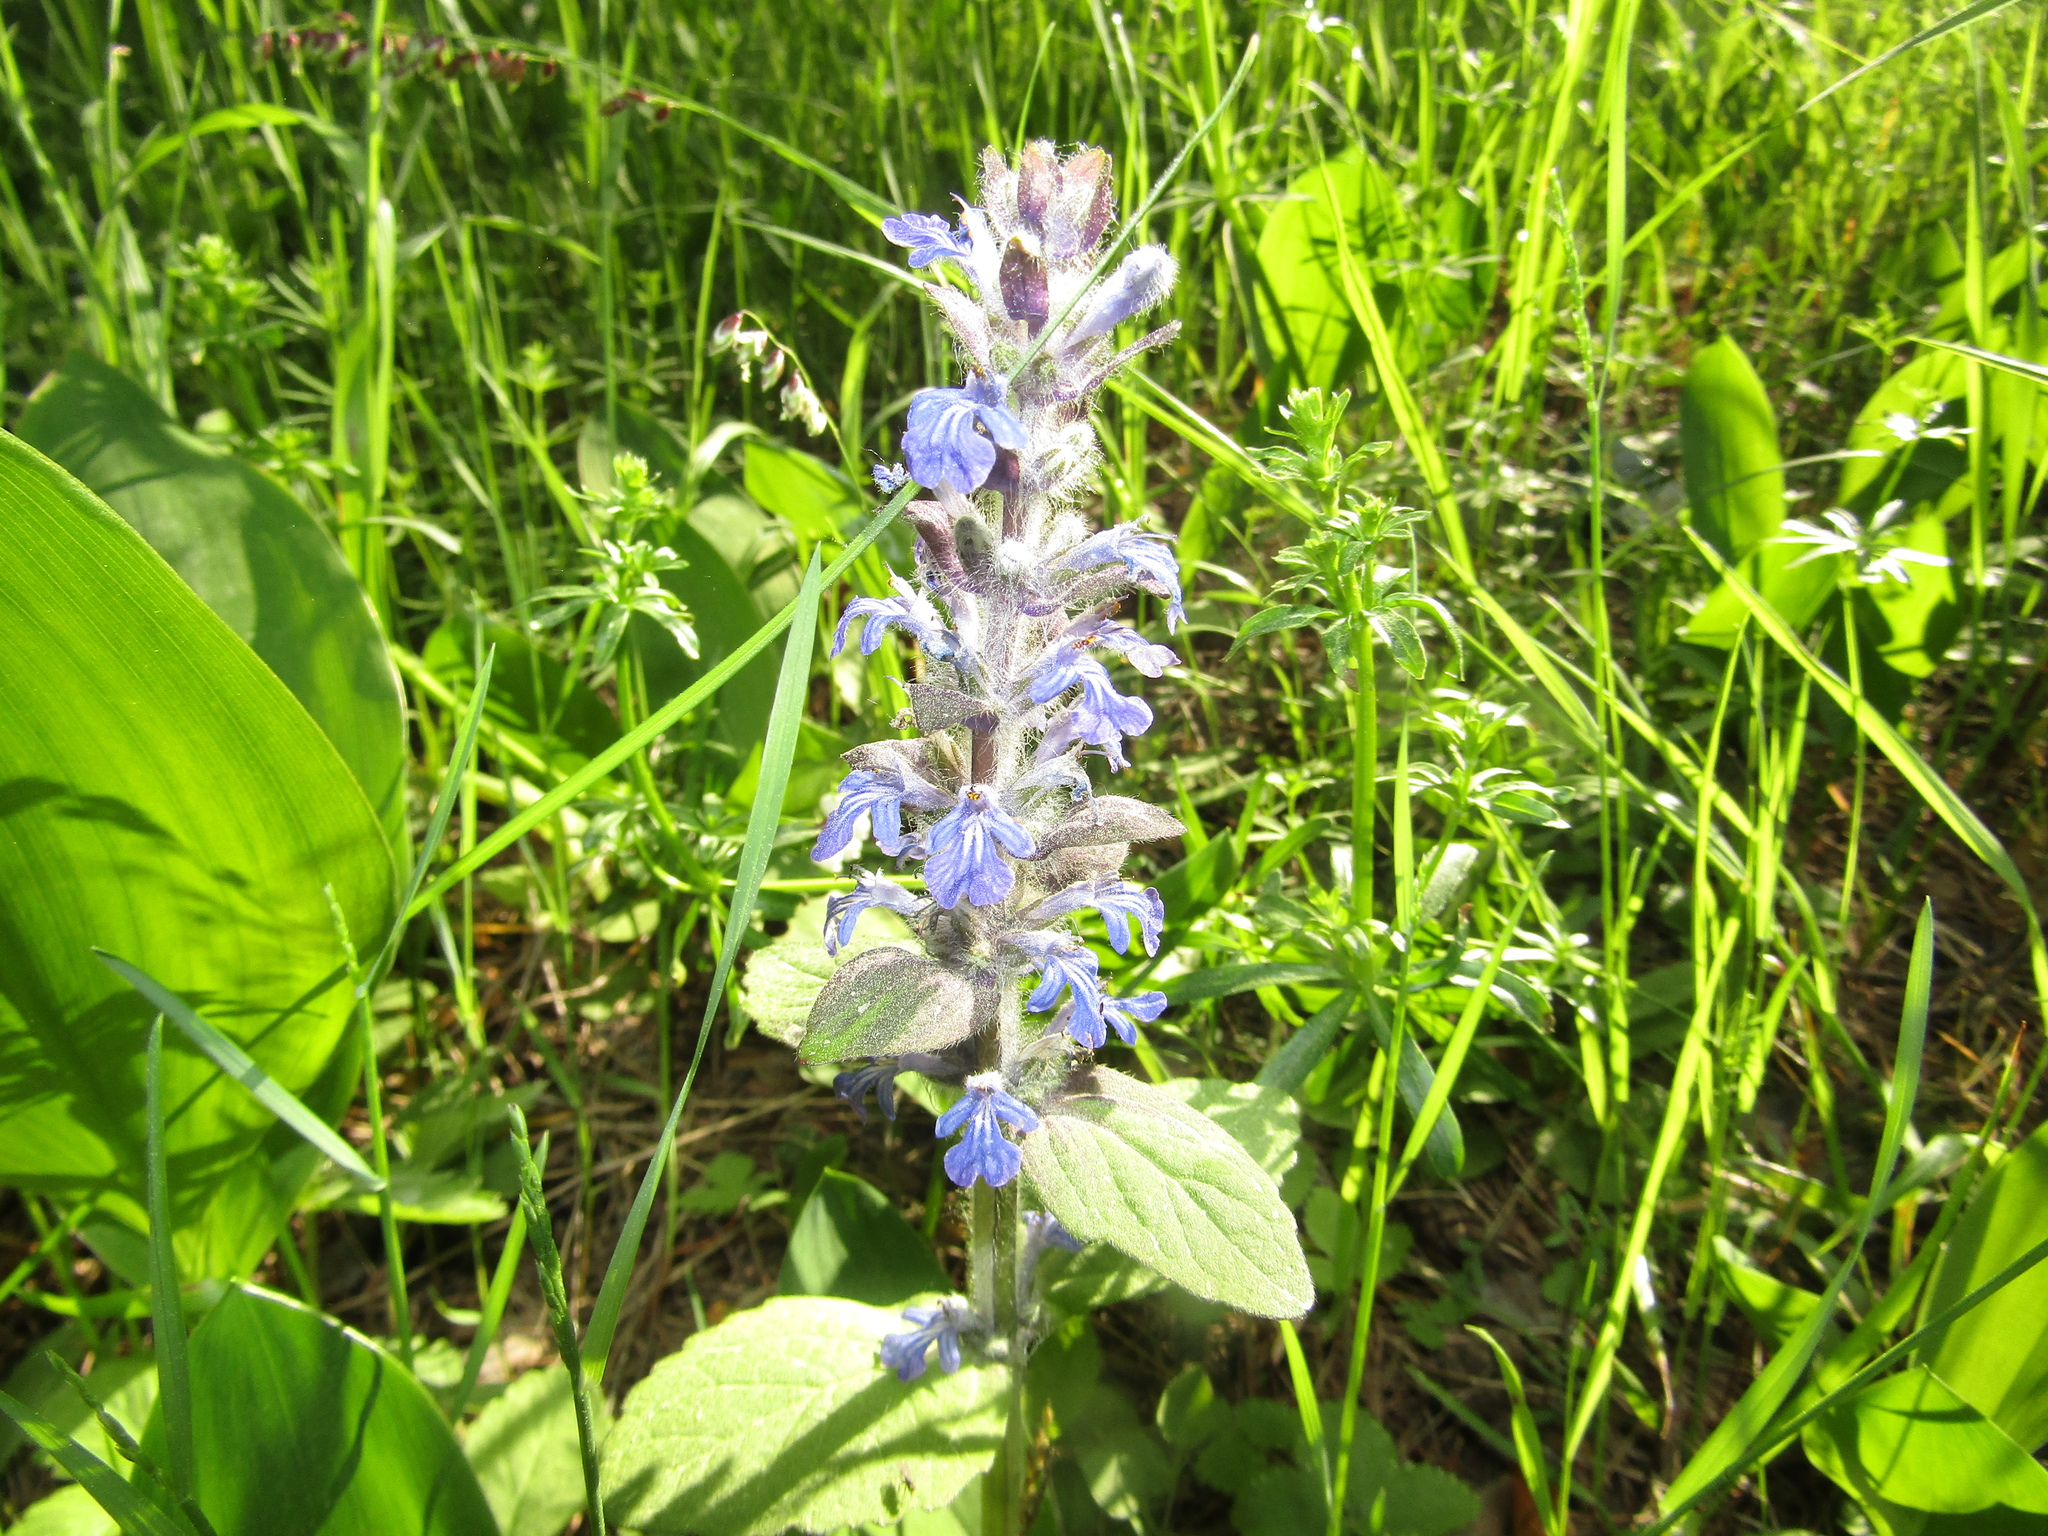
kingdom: Plantae
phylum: Tracheophyta
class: Magnoliopsida
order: Lamiales
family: Lamiaceae
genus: Ajuga
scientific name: Ajuga reptans
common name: Bugle
